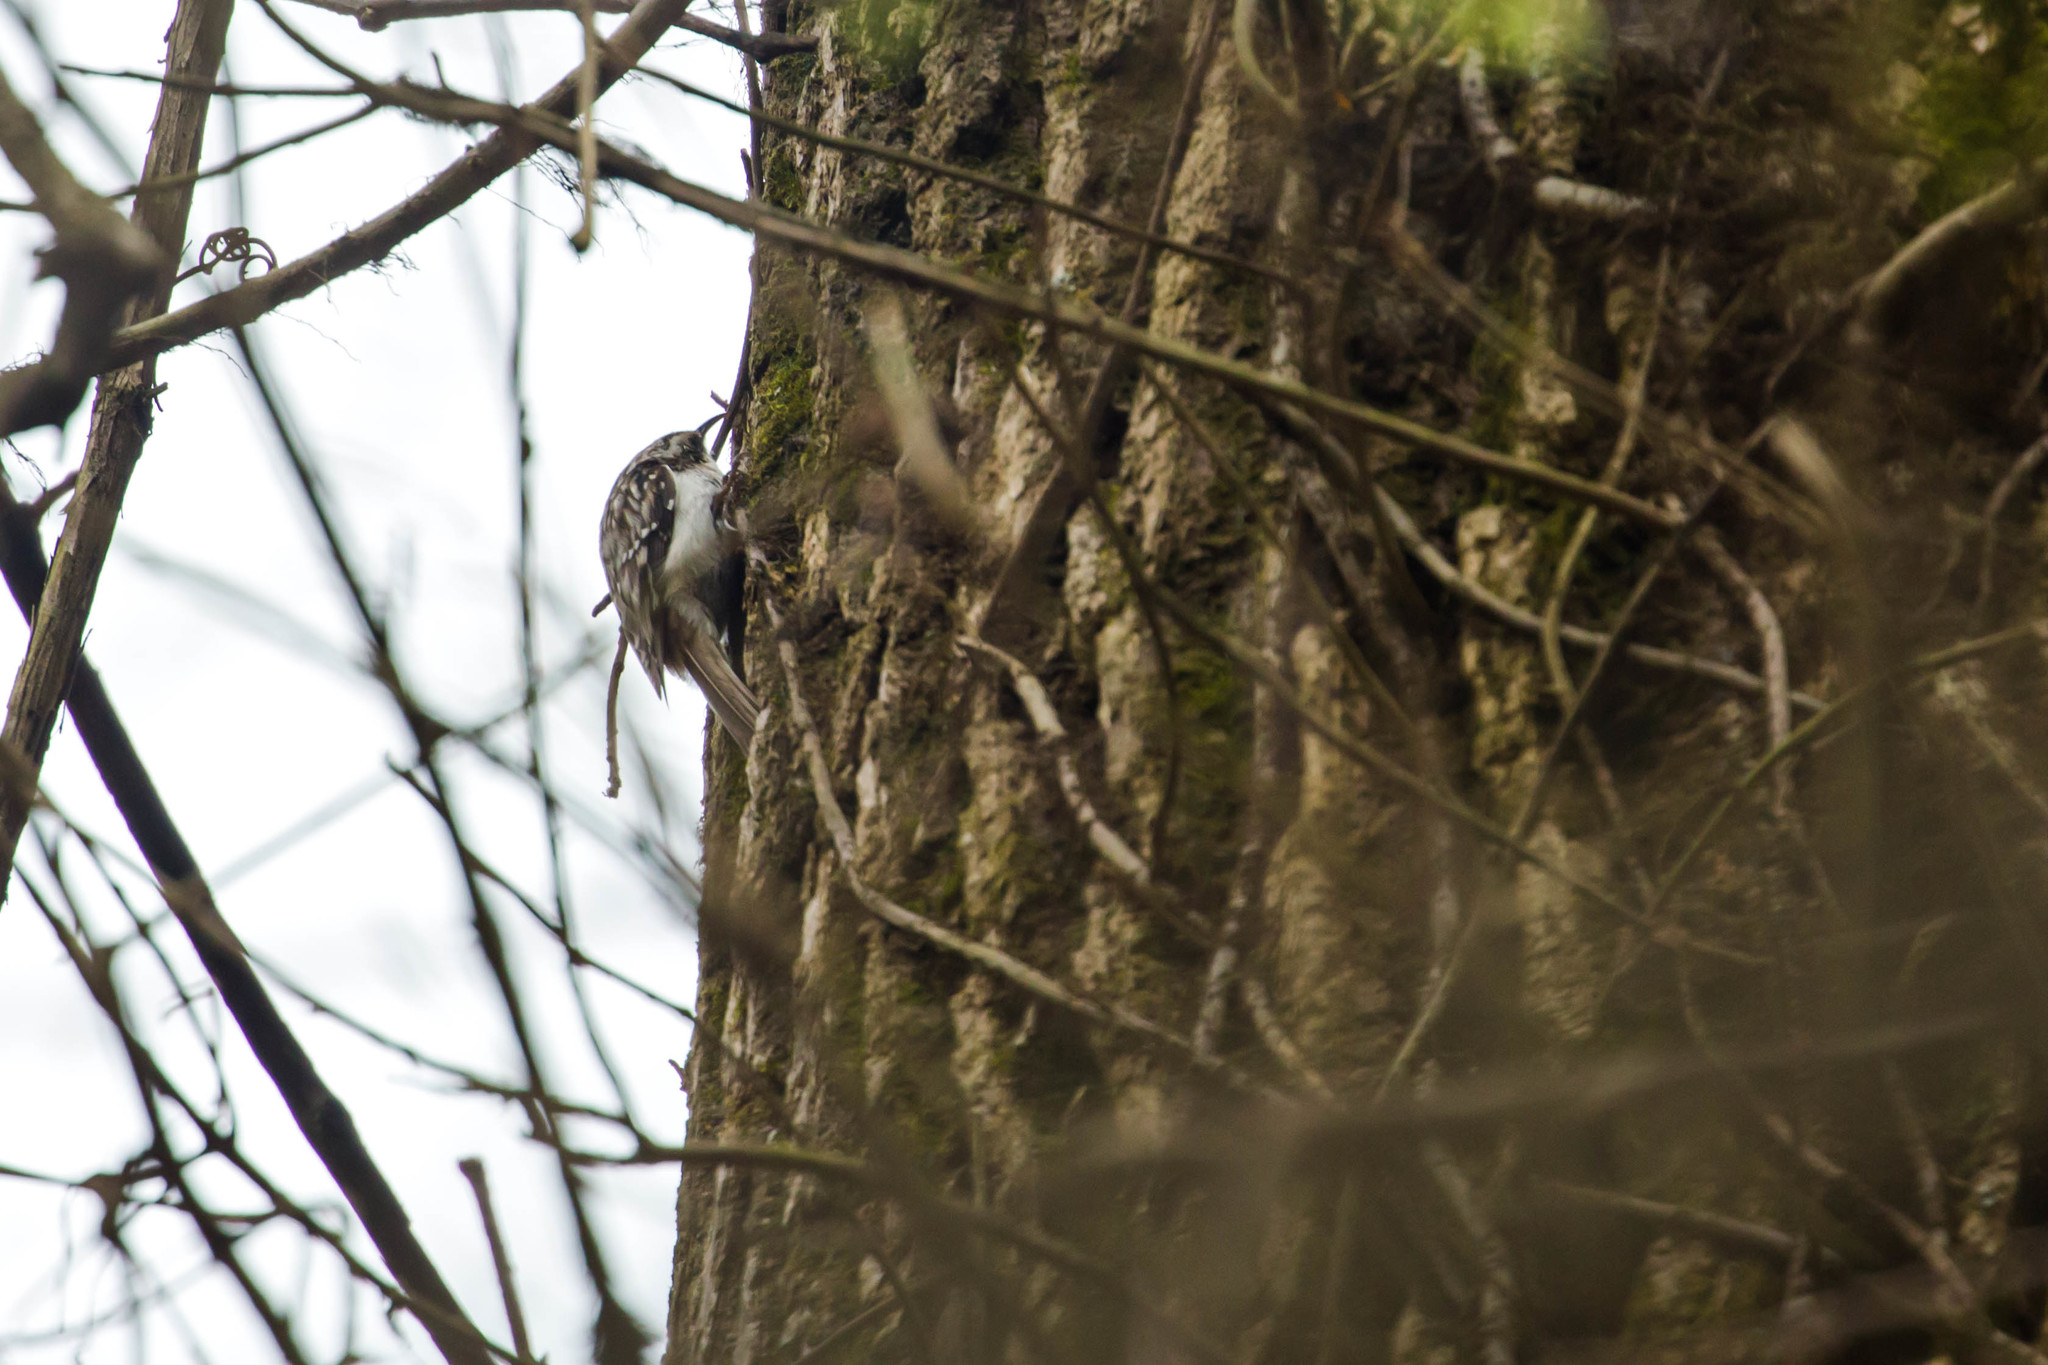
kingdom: Animalia
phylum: Chordata
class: Aves
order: Passeriformes
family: Certhiidae
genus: Certhia
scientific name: Certhia americana
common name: Brown creeper
